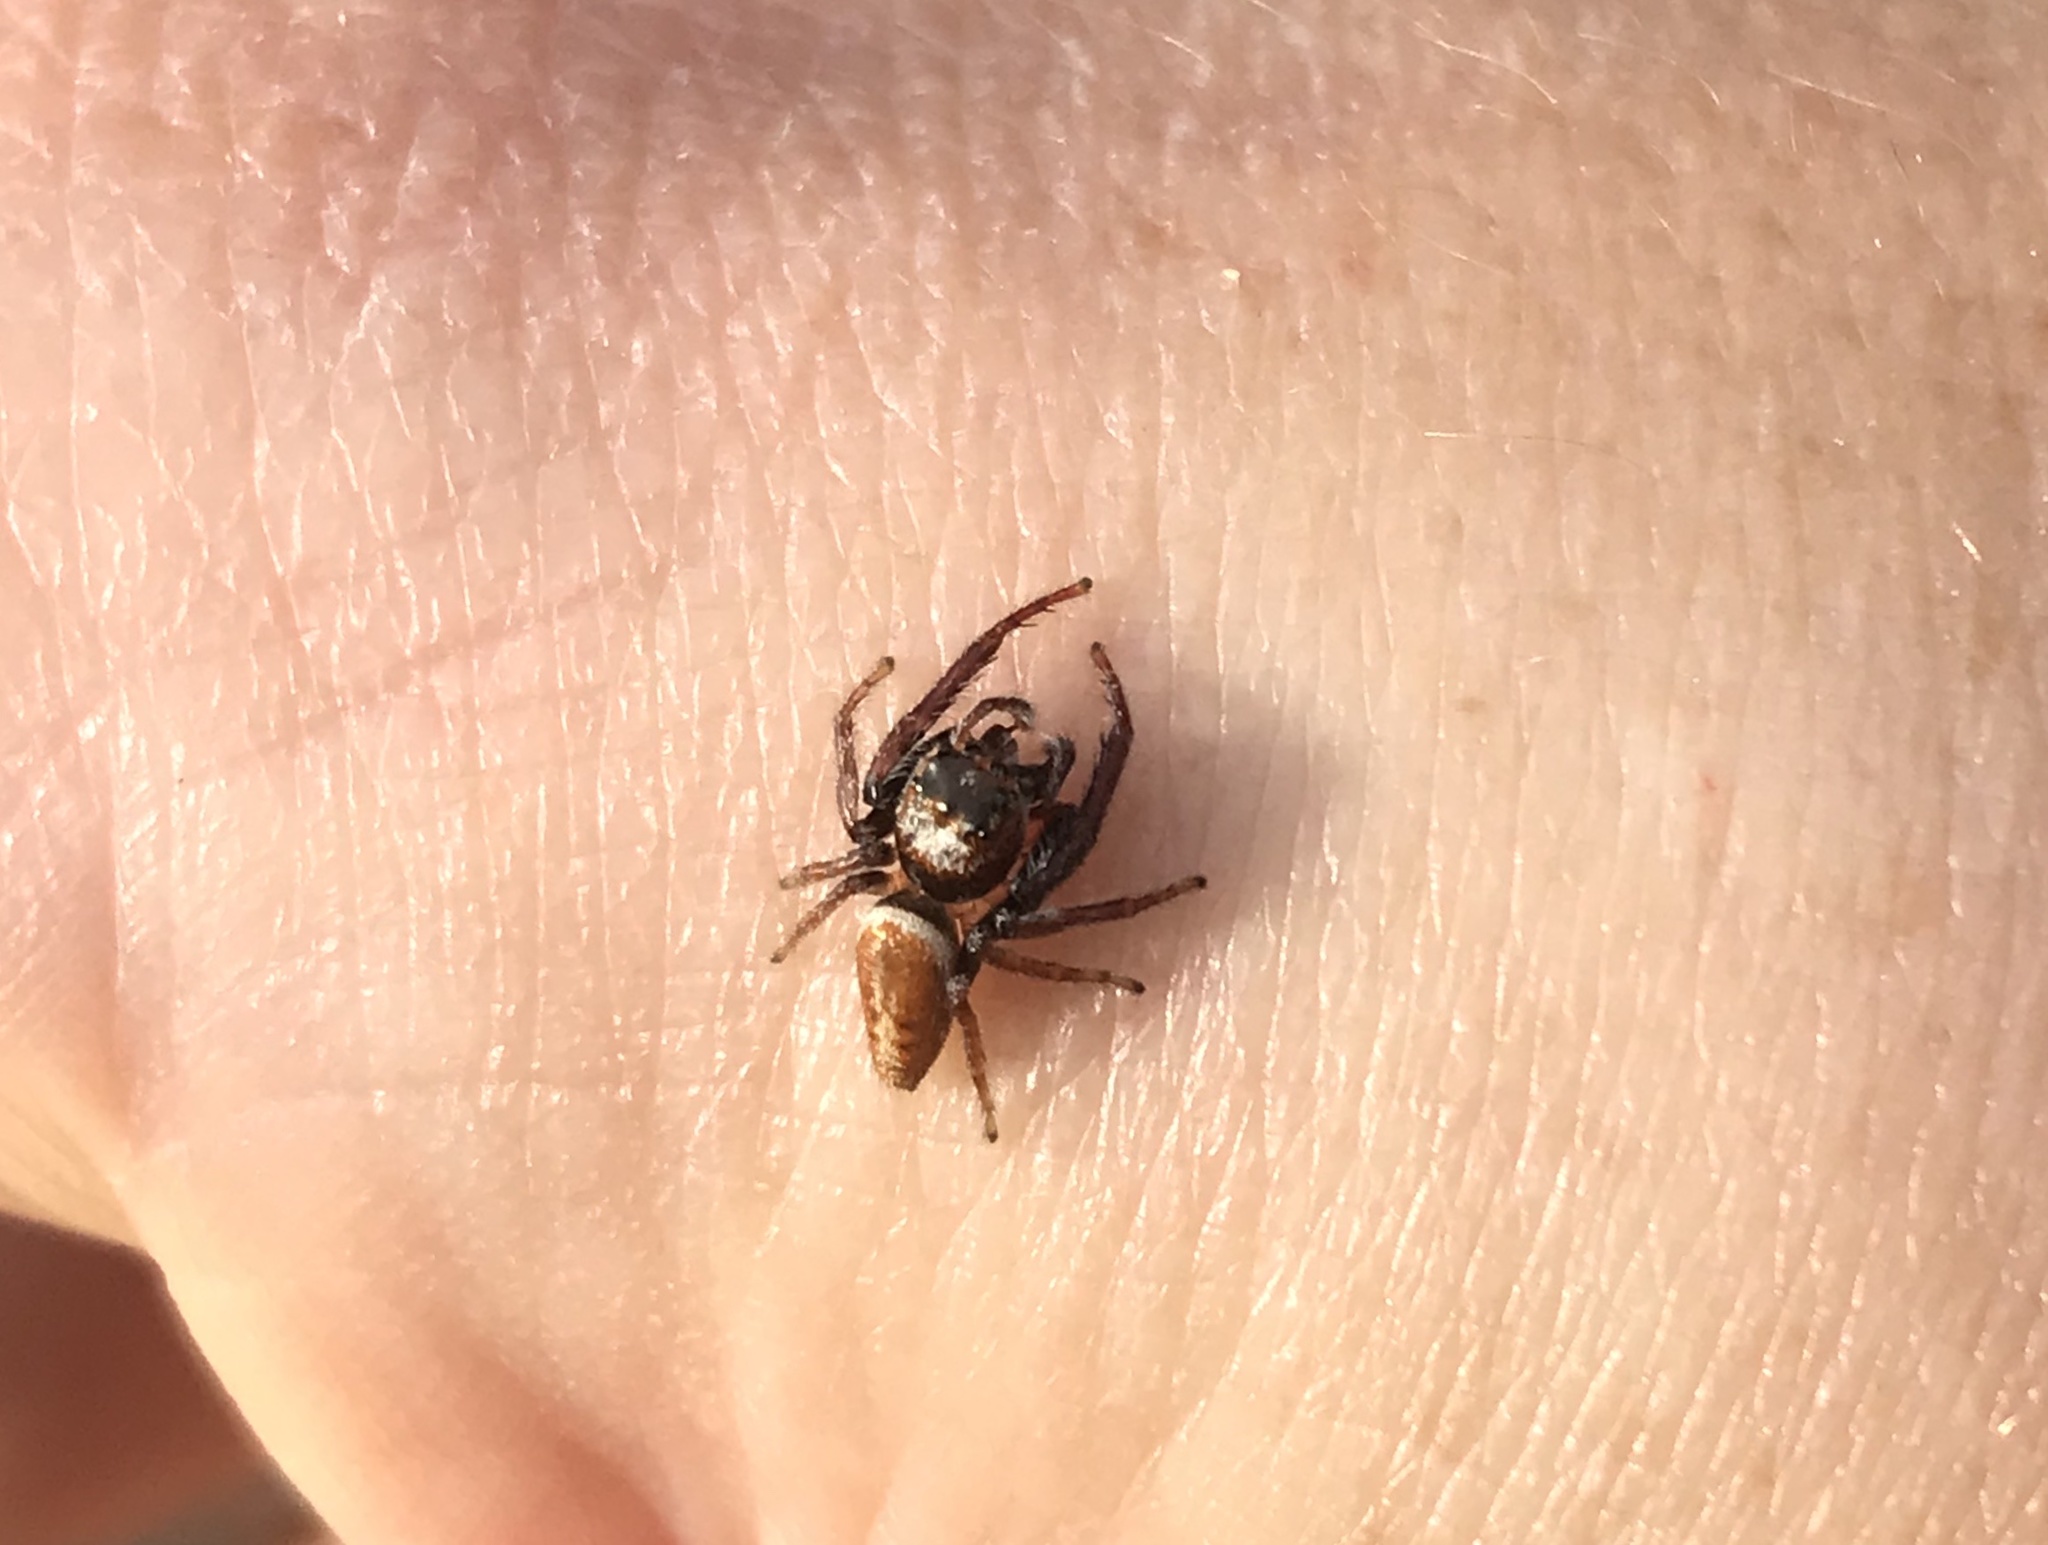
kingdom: Animalia
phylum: Arthropoda
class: Arachnida
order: Araneae
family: Salticidae
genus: Opisthoncus
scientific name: Opisthoncus polyphemus
